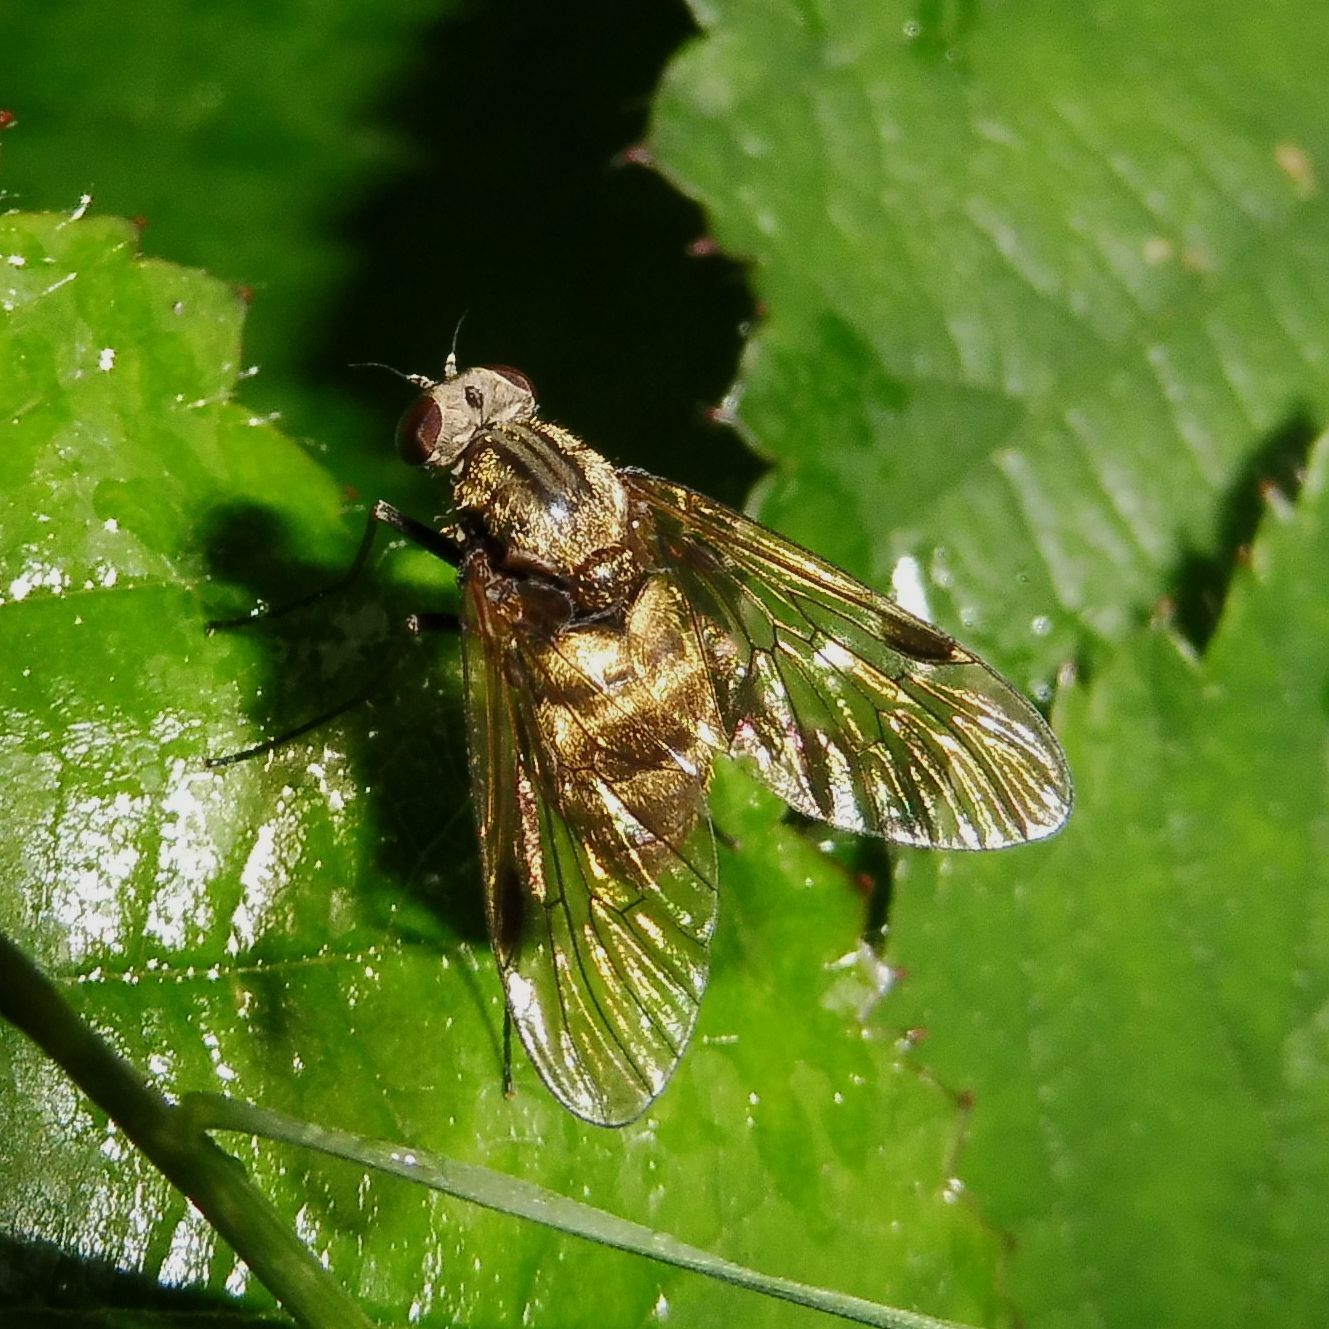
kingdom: Animalia
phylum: Arthropoda
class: Insecta
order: Diptera
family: Rhagionidae
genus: Chrysopilus
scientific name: Chrysopilus cristatus
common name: Black snipefly
